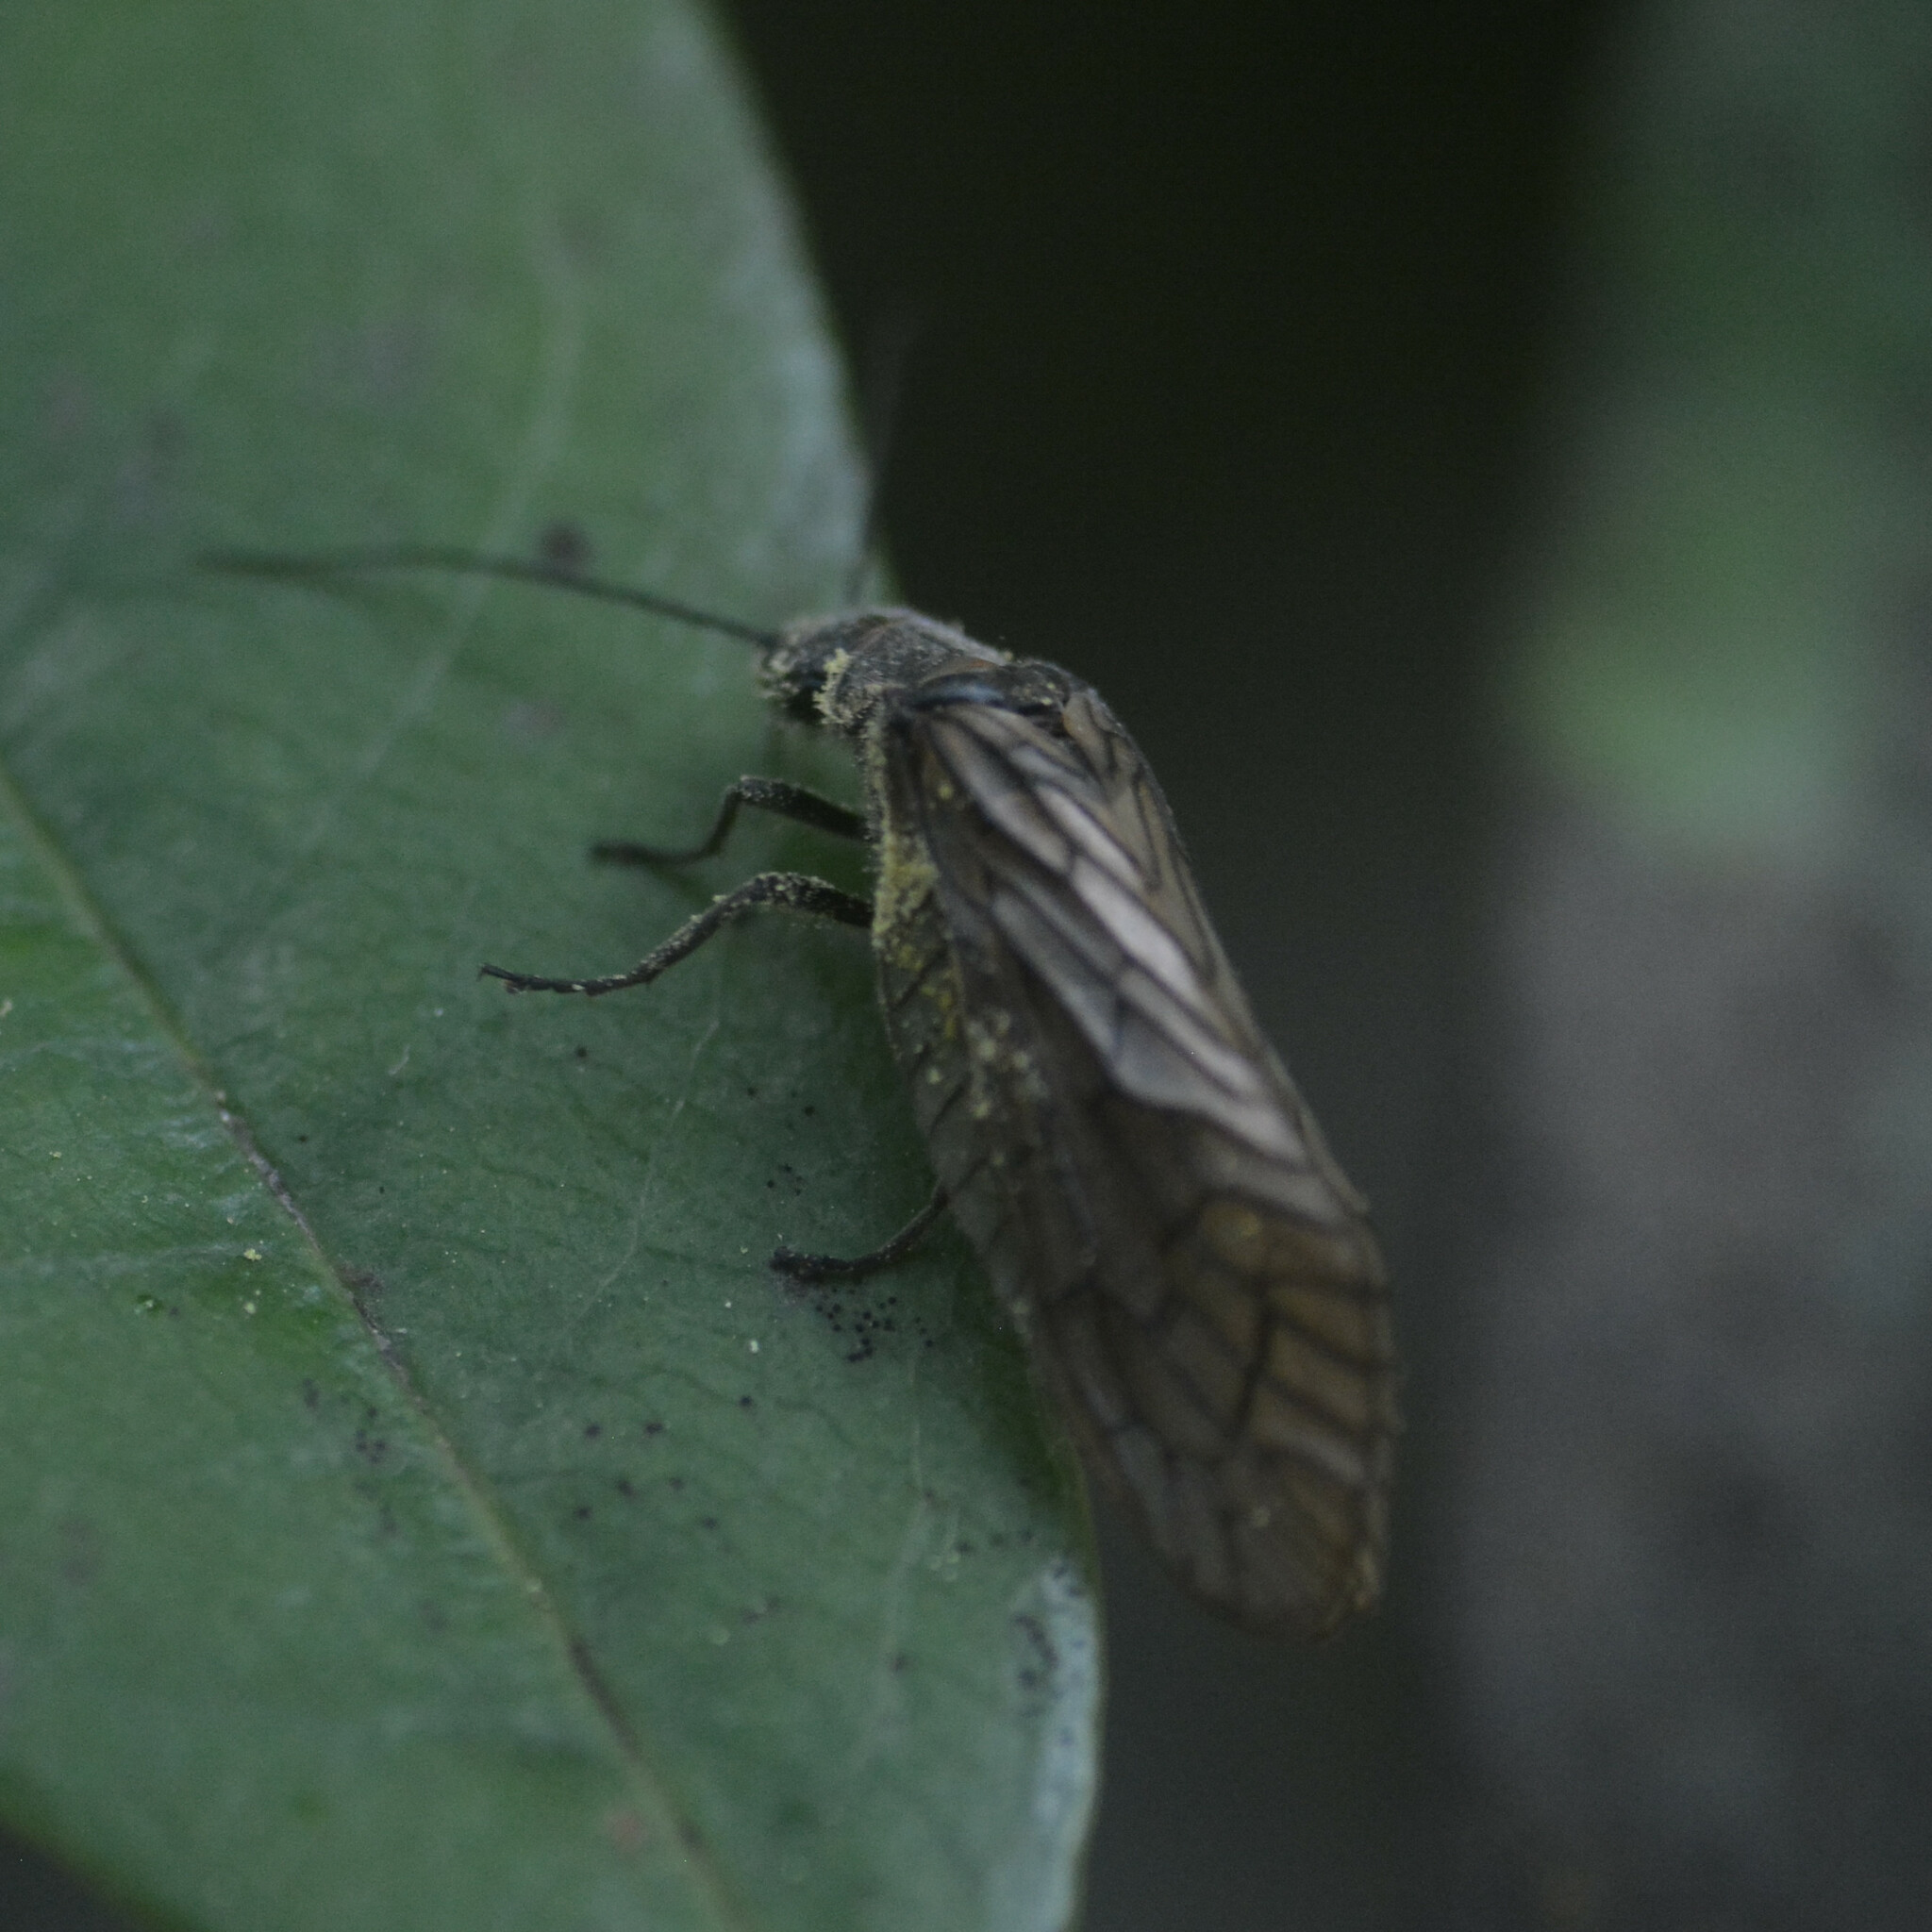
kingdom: Animalia
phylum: Arthropoda
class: Insecta
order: Megaloptera
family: Sialidae
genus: Sialis
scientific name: Sialis lutaria
